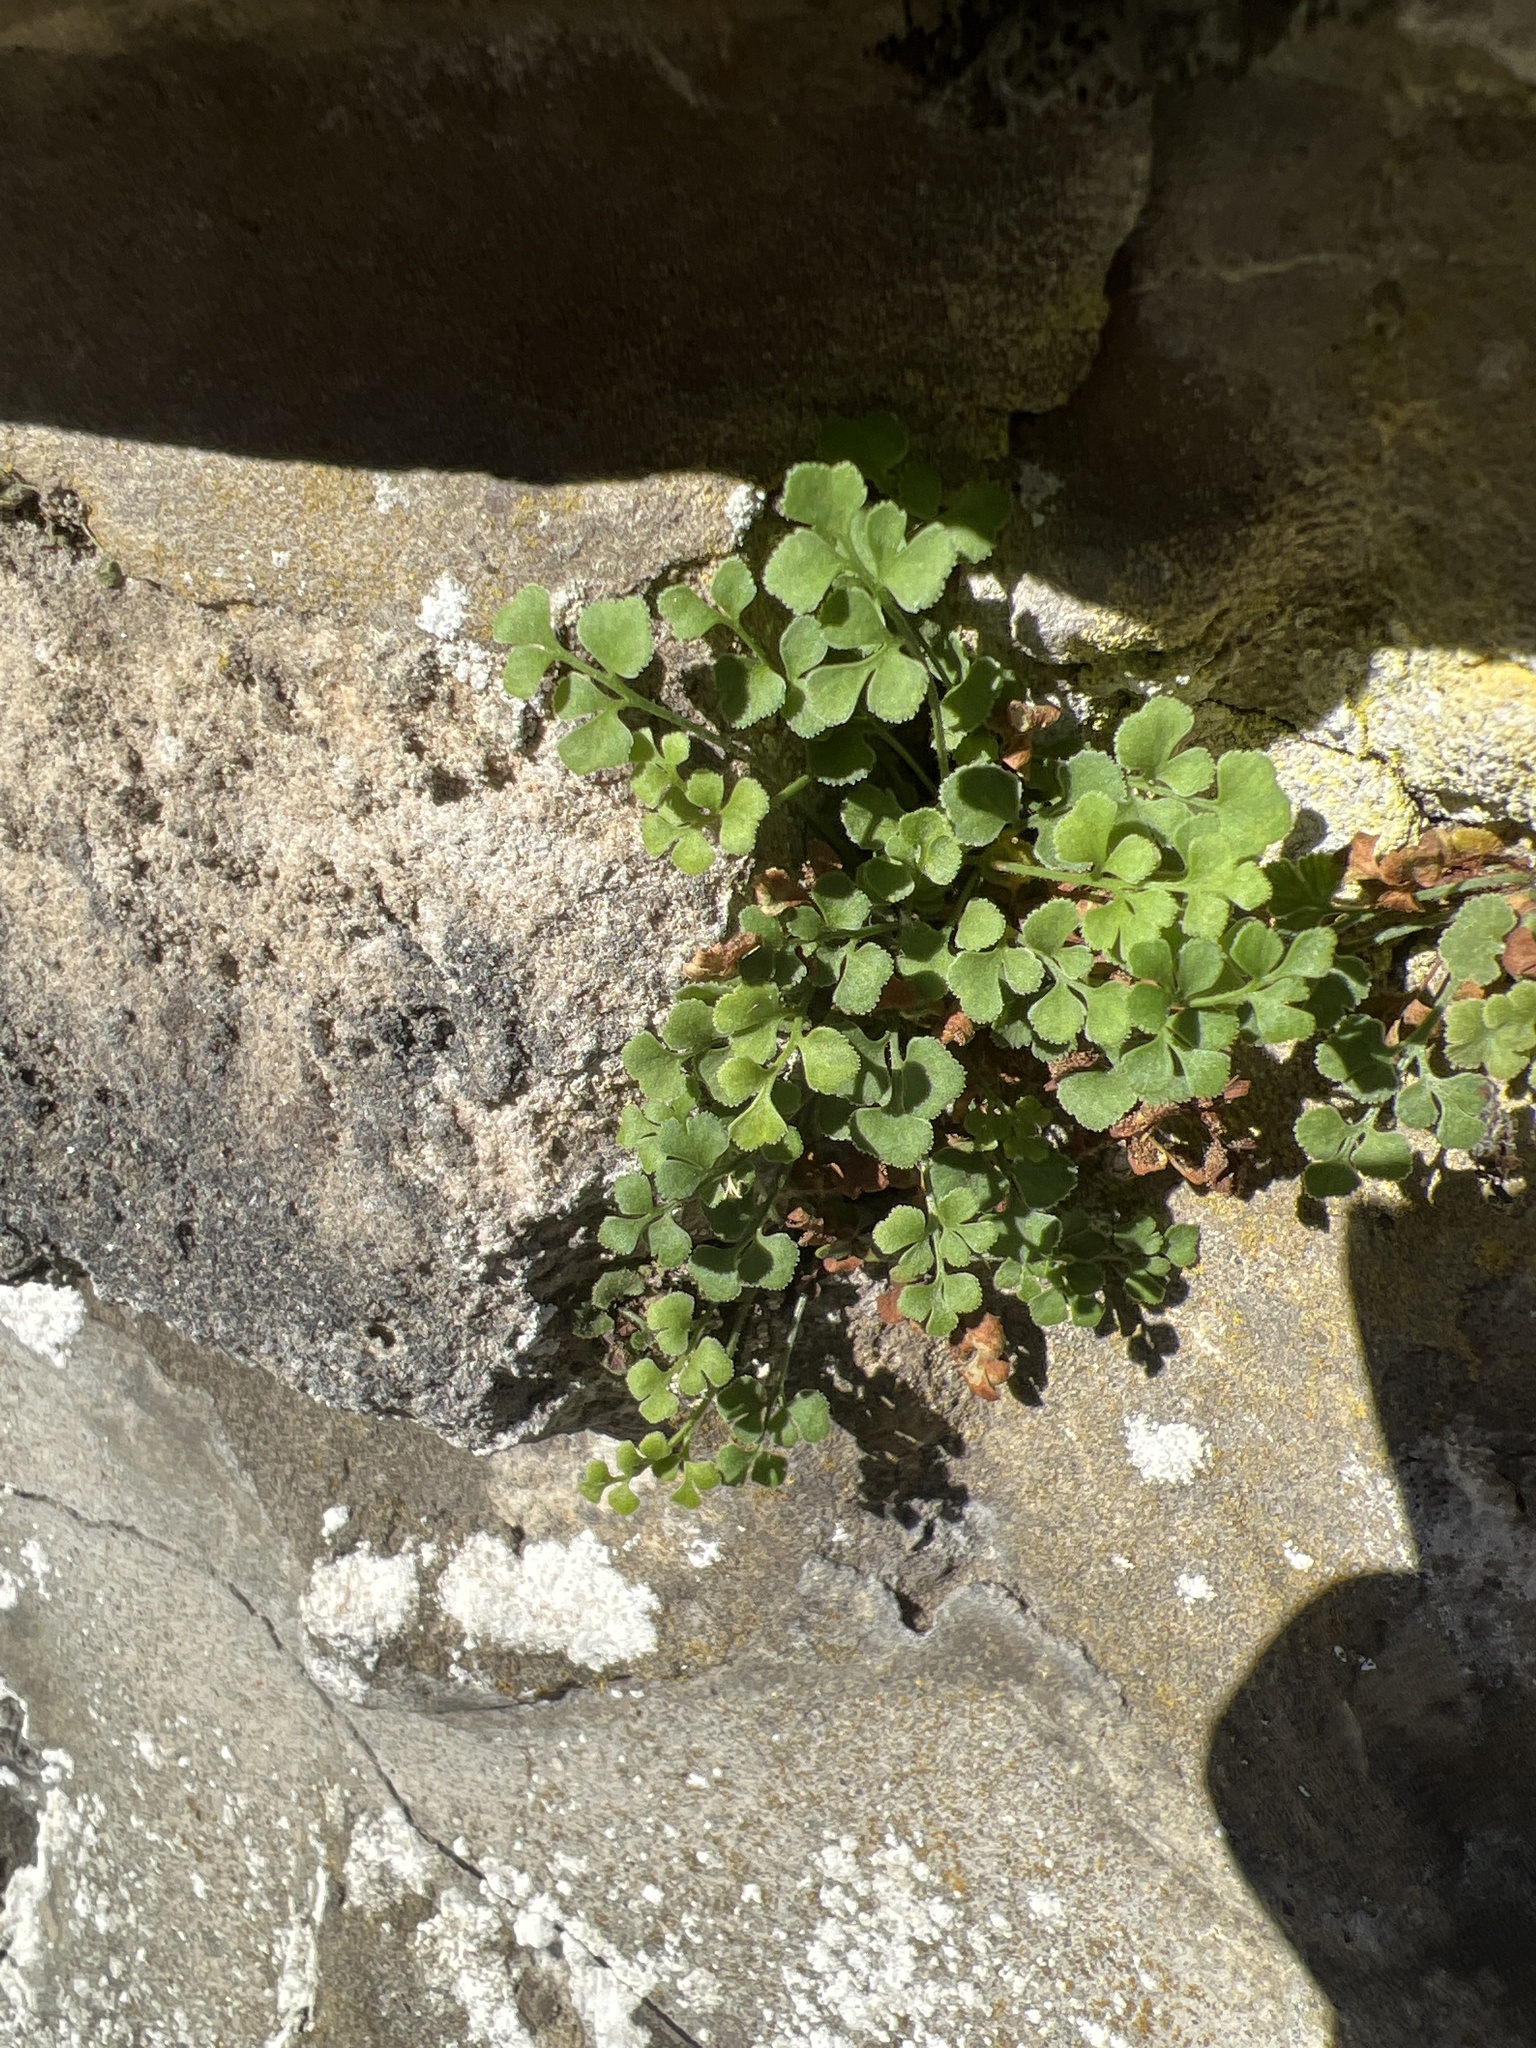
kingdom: Plantae
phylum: Tracheophyta
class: Polypodiopsida
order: Polypodiales
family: Aspleniaceae
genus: Asplenium
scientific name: Asplenium ruta-muraria
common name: Wall-rue
